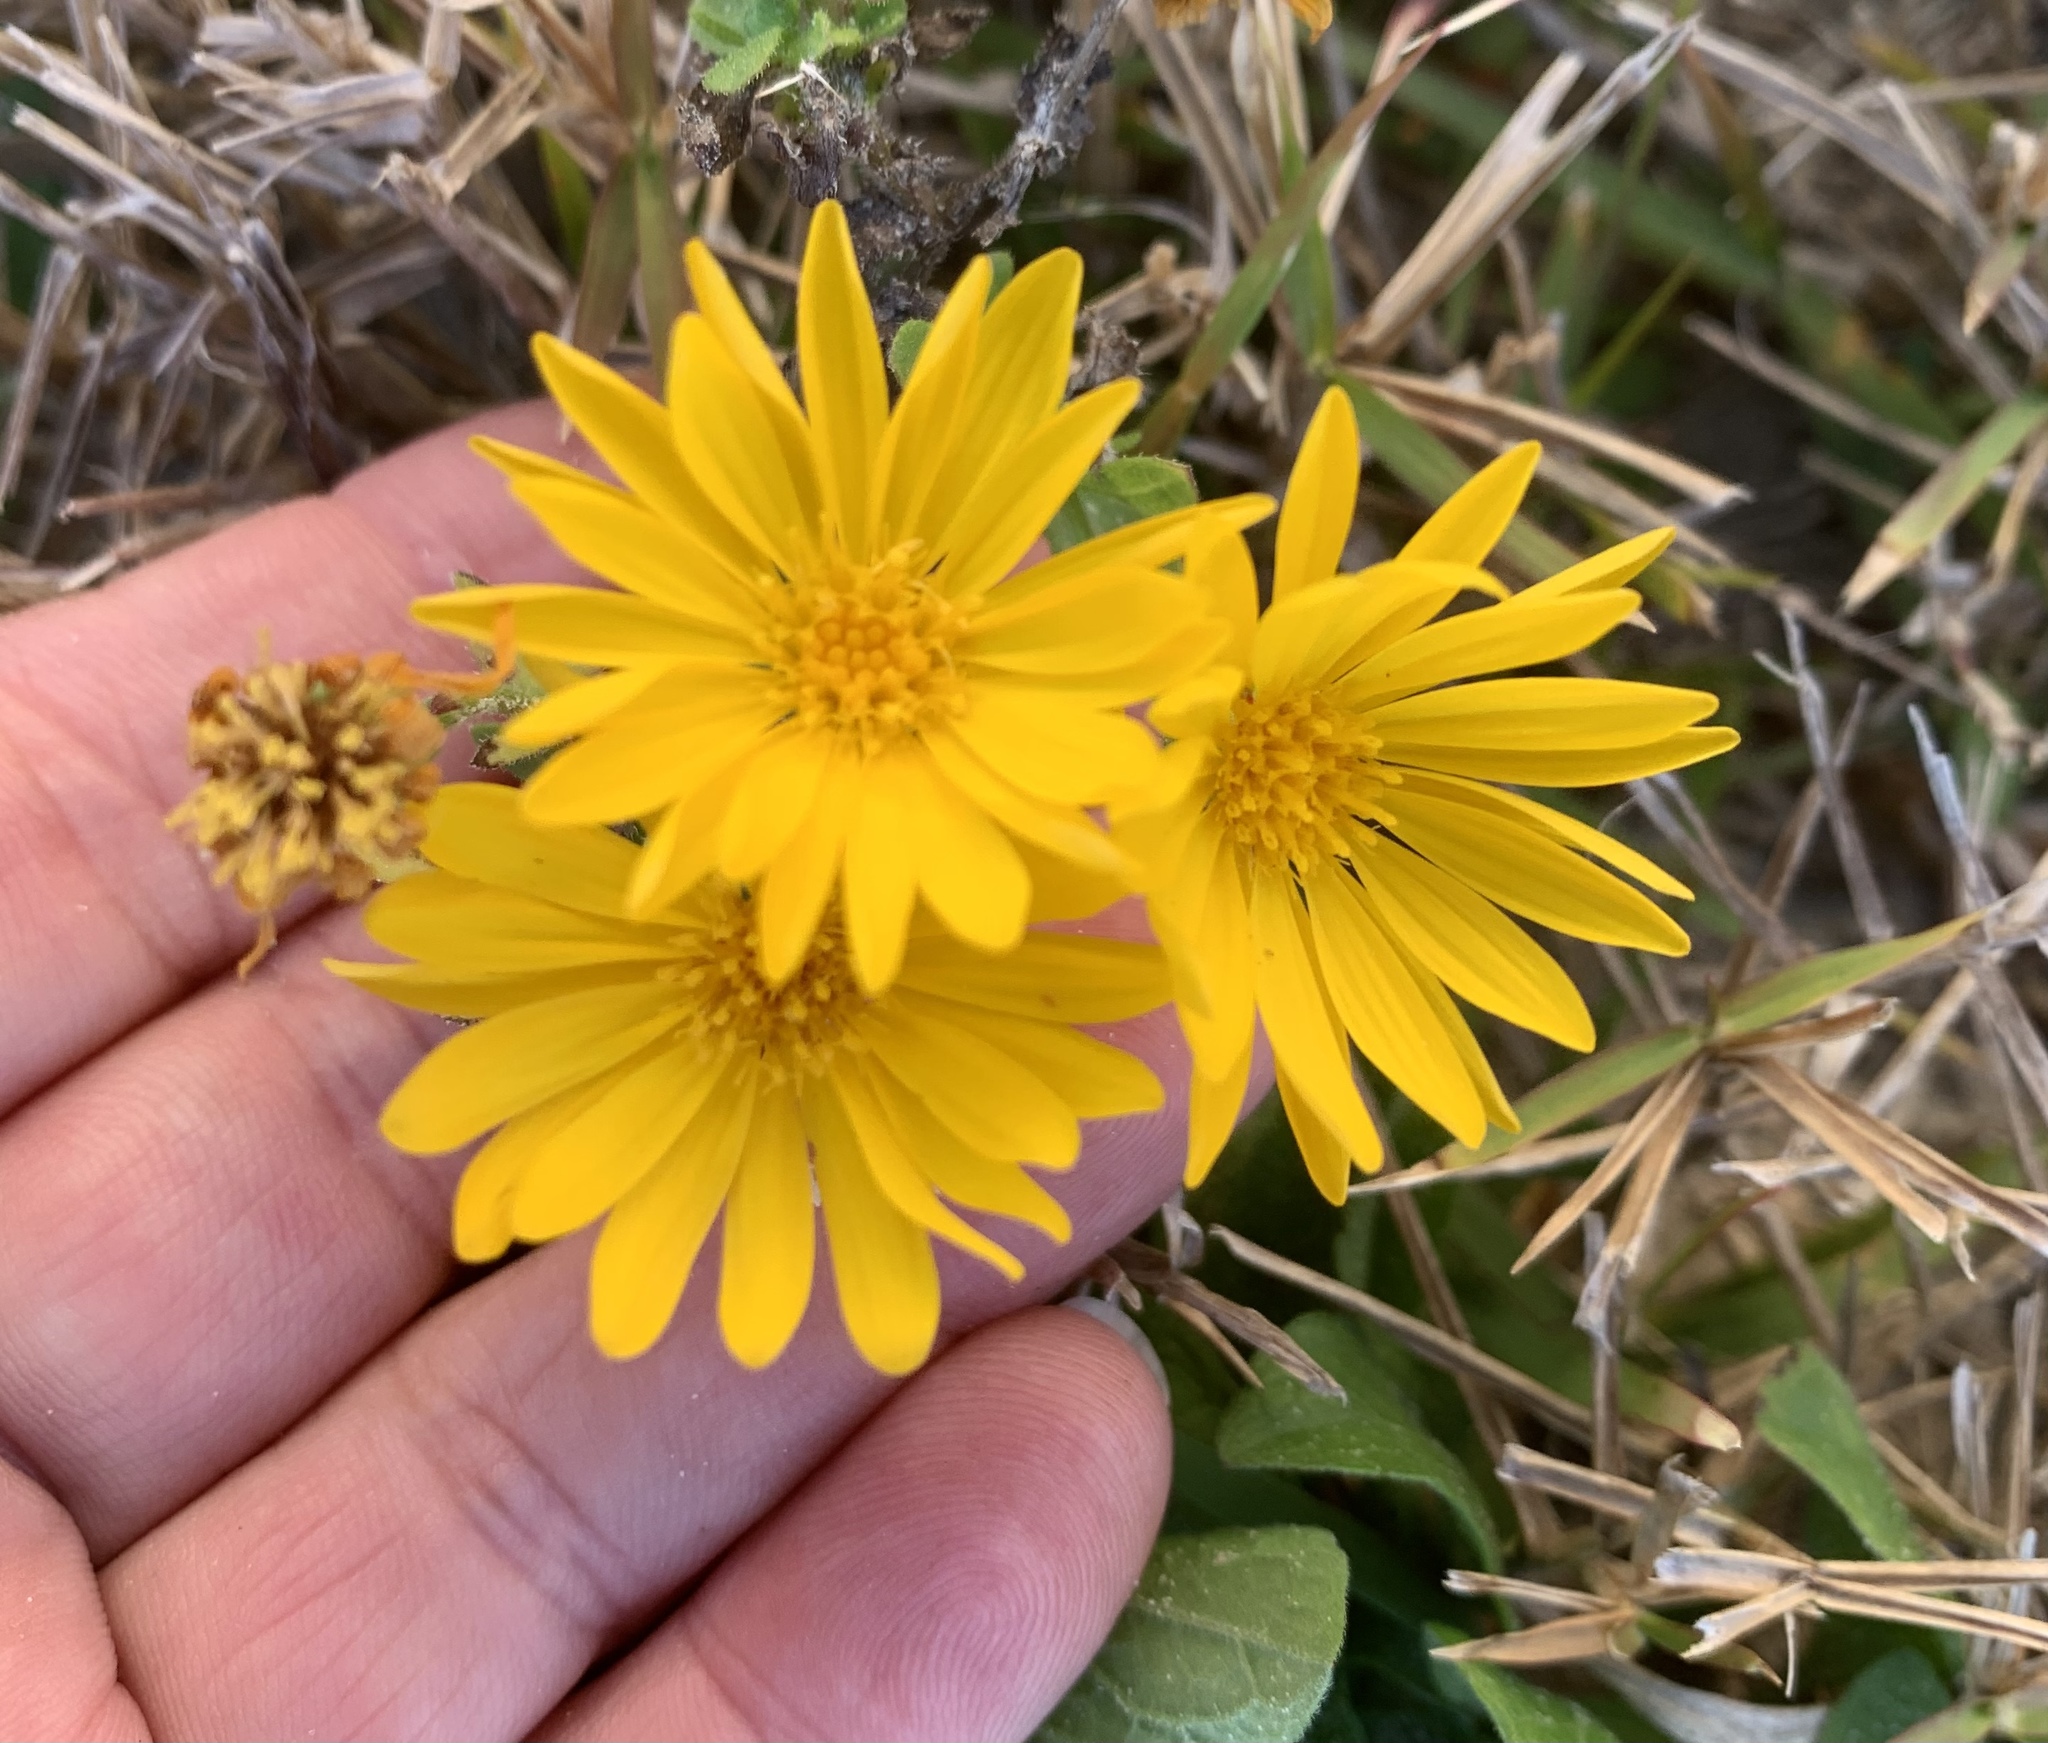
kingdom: Plantae
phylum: Tracheophyta
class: Magnoliopsida
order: Asterales
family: Asteraceae
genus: Heterotheca
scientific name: Heterotheca subaxillaris
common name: Camphorweed
